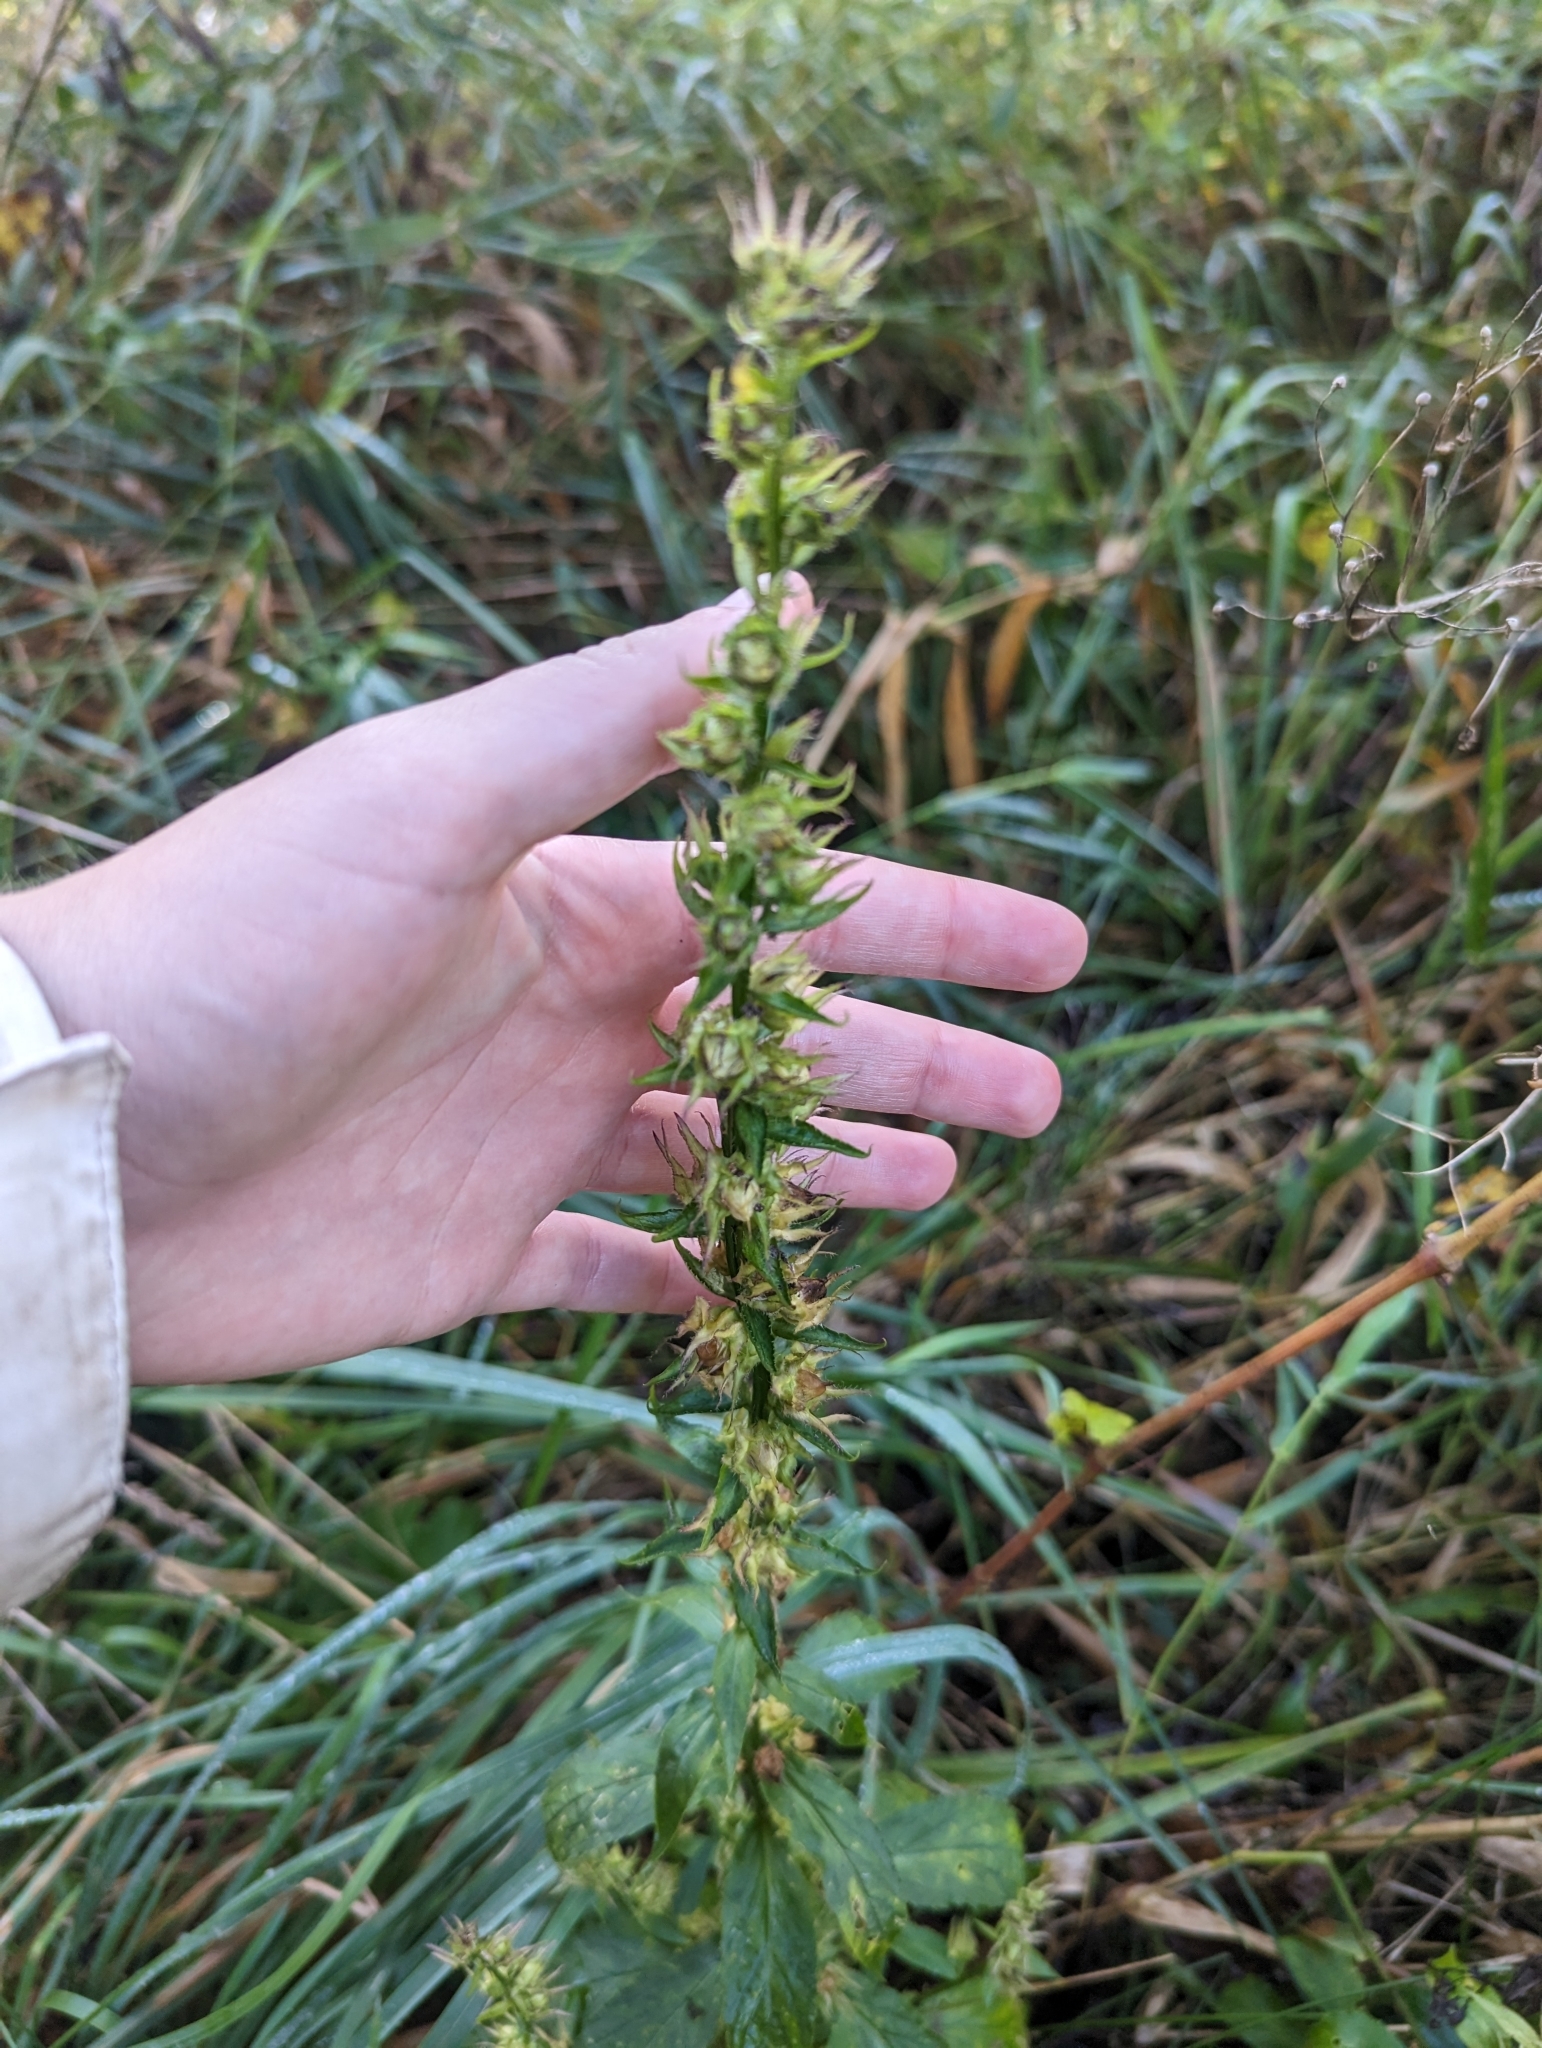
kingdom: Plantae
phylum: Tracheophyta
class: Magnoliopsida
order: Asterales
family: Campanulaceae
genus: Lobelia
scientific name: Lobelia siphilitica
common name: Great lobelia
